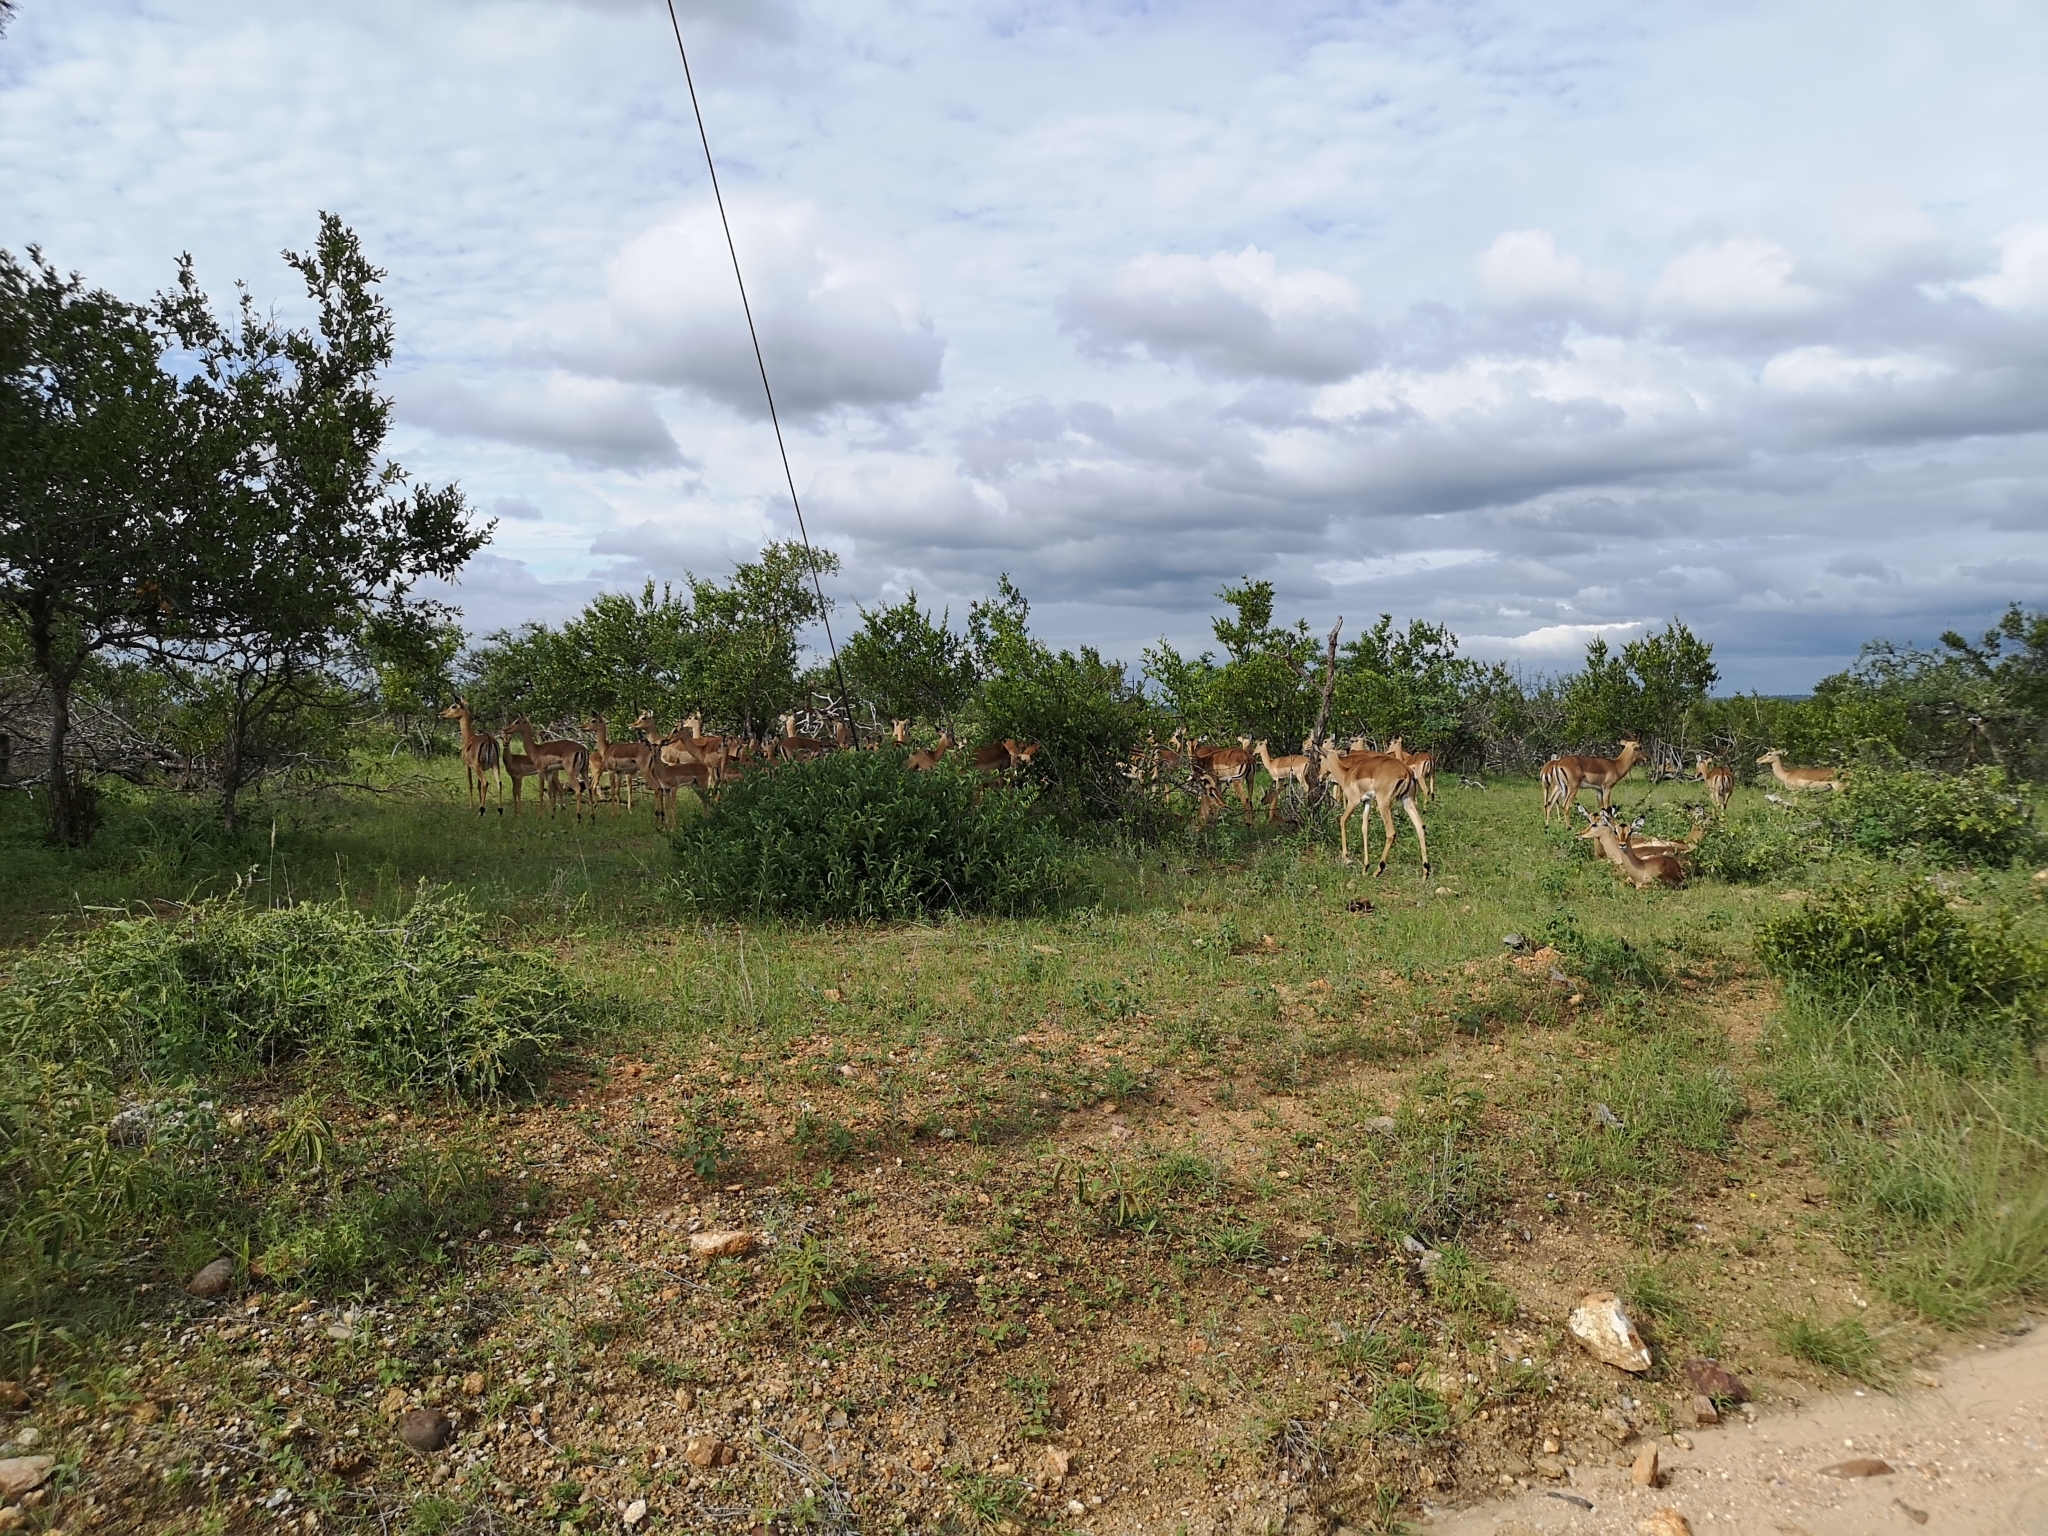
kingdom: Animalia
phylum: Chordata
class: Mammalia
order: Artiodactyla
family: Bovidae
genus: Aepyceros
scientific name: Aepyceros melampus
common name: Impala
